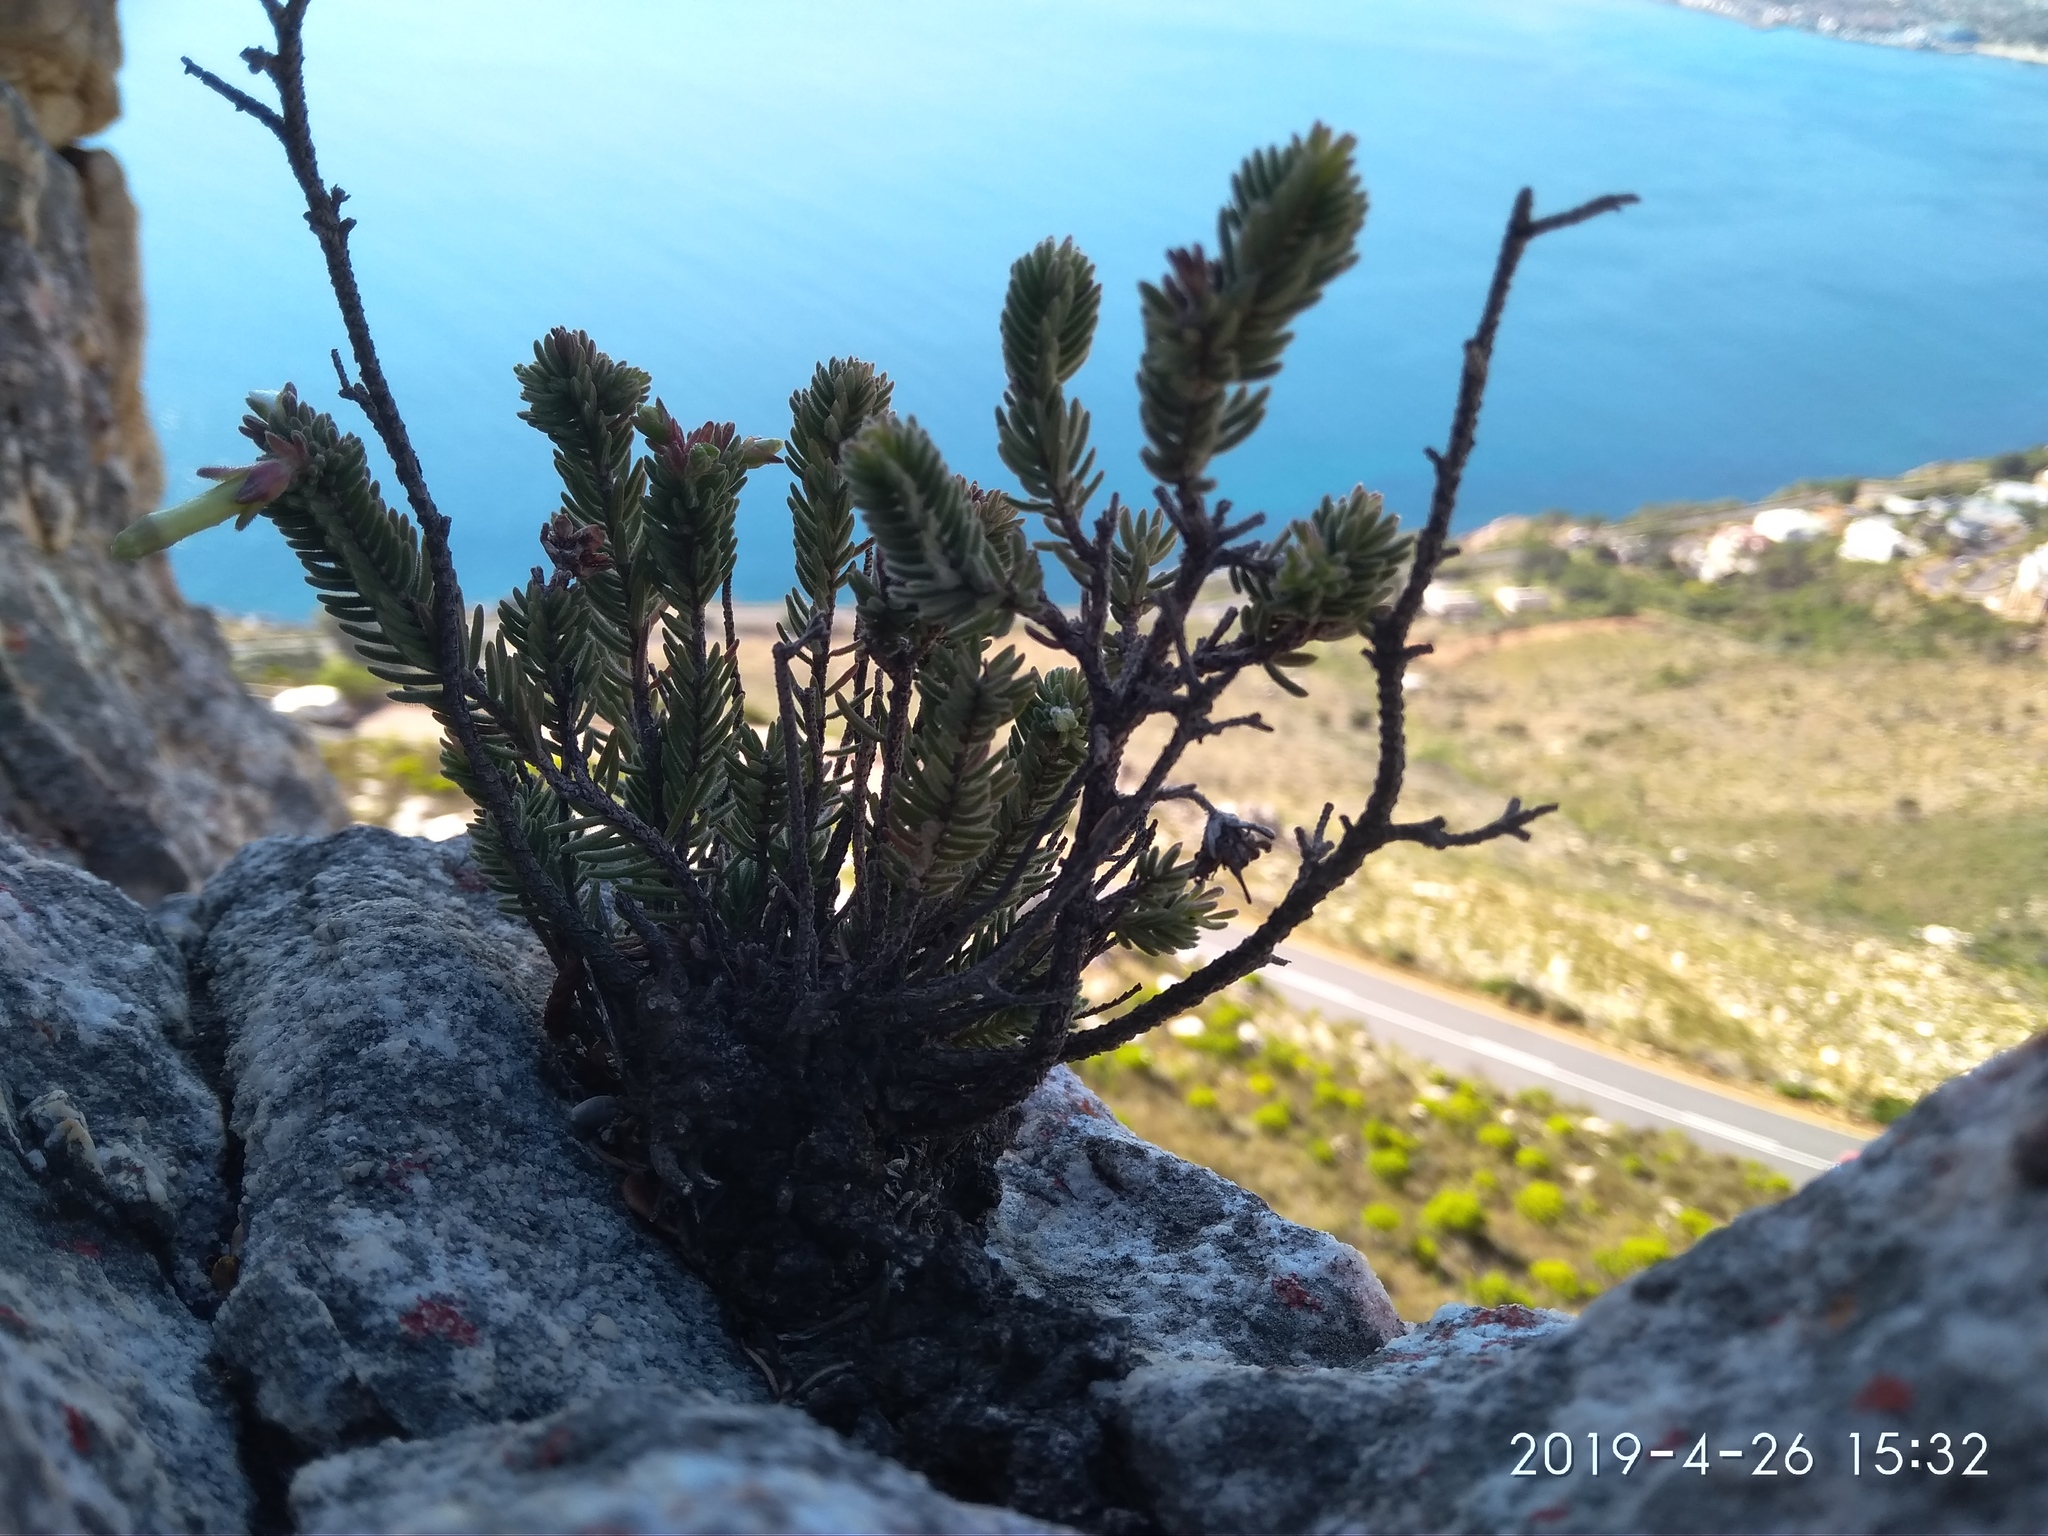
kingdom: Plantae
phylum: Tracheophyta
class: Magnoliopsida
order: Ericales
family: Ericaceae
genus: Erica
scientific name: Erica amidae
